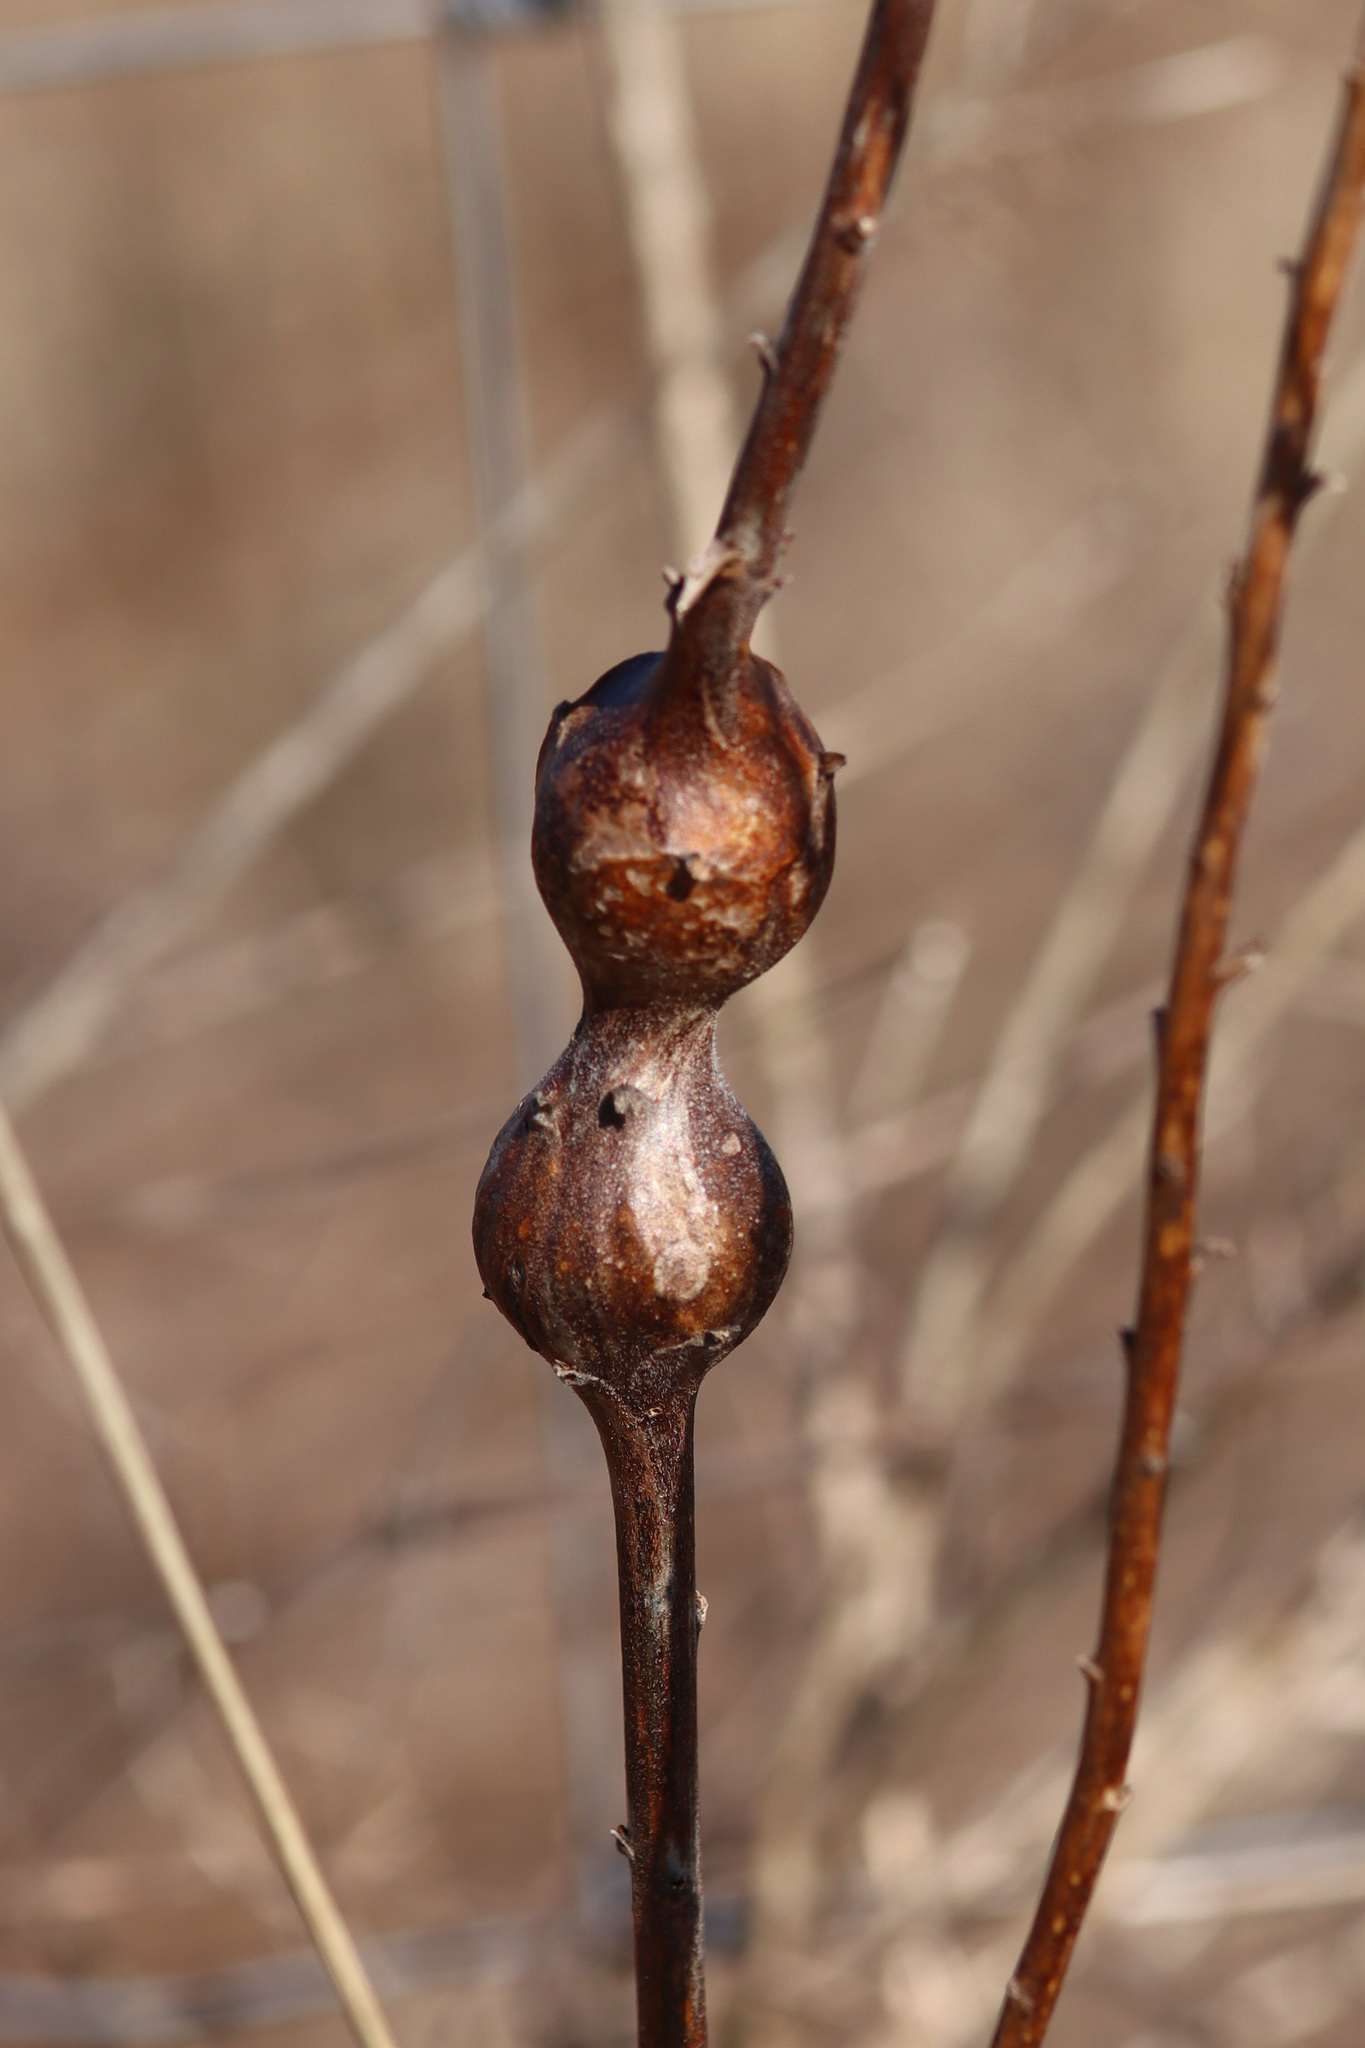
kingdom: Animalia
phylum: Arthropoda
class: Insecta
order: Diptera
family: Tephritidae
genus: Eurosta
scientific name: Eurosta solidaginis
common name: Goldenrod gall fly
